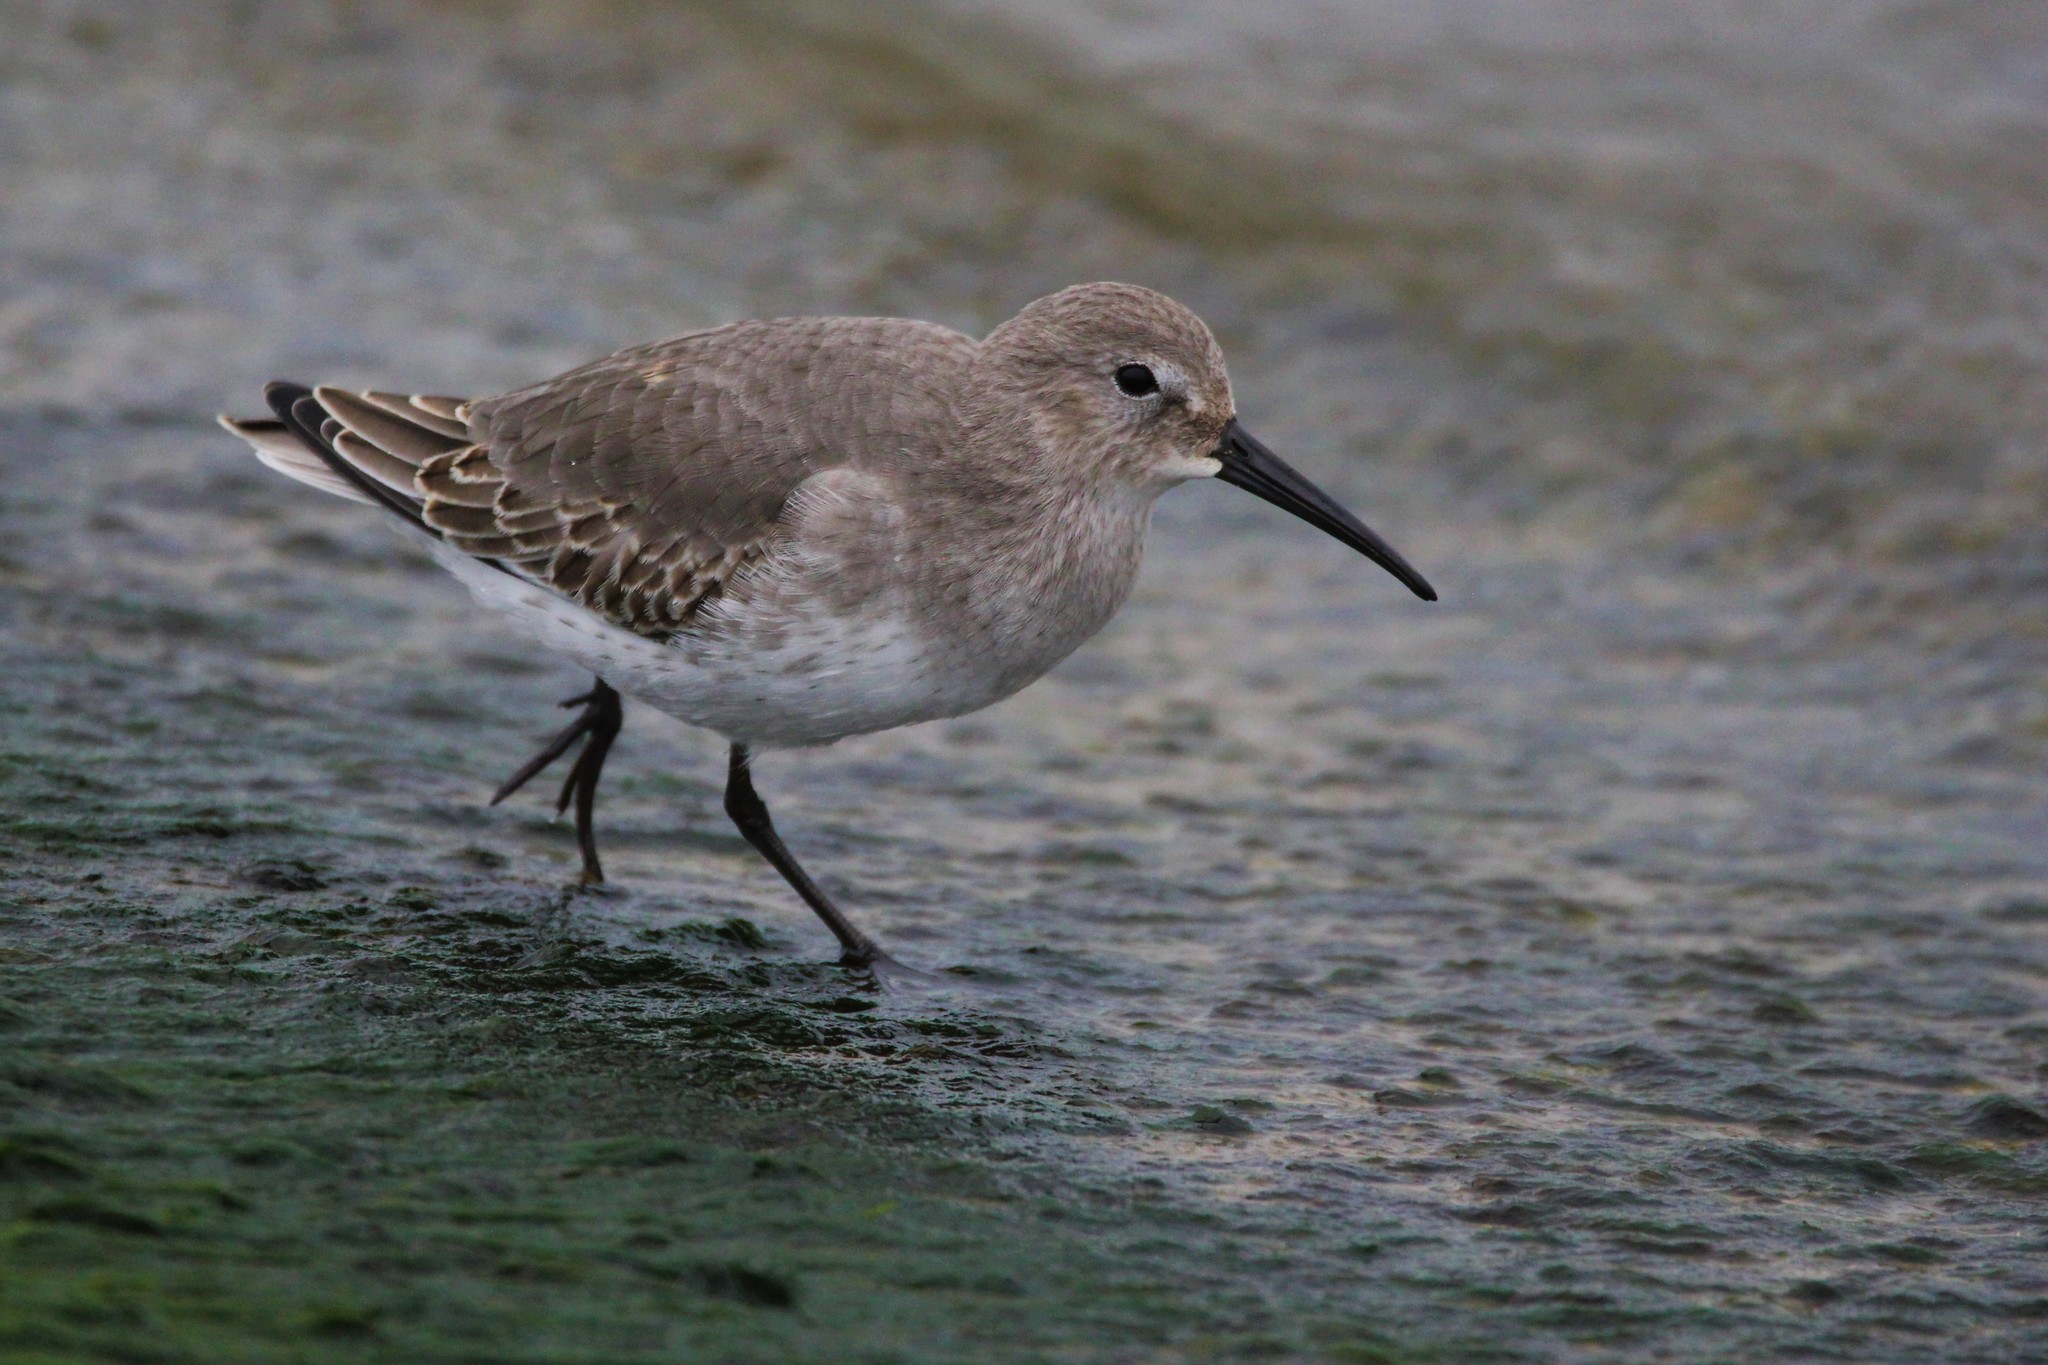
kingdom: Animalia
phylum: Chordata
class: Aves
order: Charadriiformes
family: Scolopacidae
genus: Calidris
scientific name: Calidris alpina
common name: Dunlin
